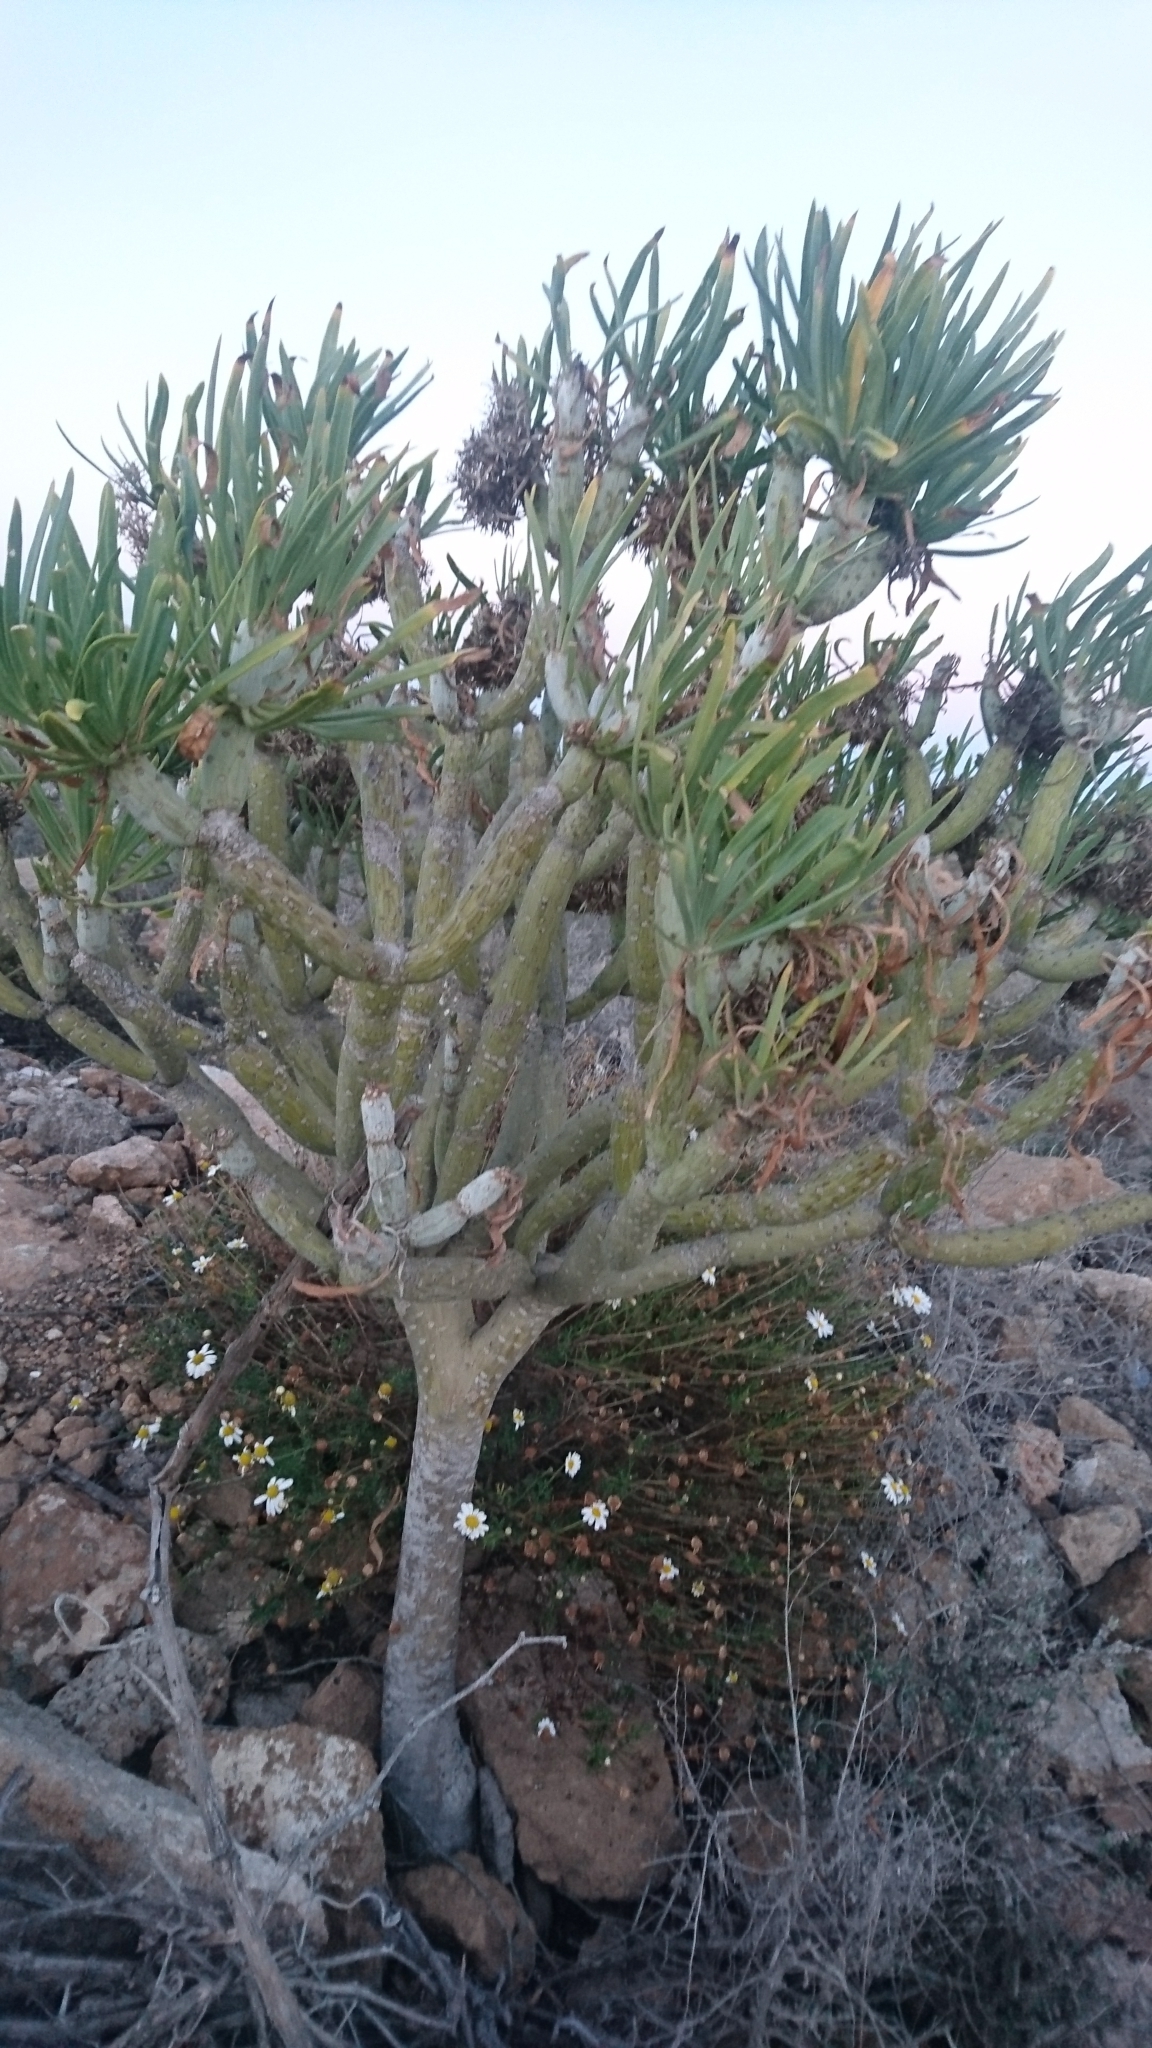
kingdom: Plantae
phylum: Tracheophyta
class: Magnoliopsida
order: Asterales
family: Asteraceae
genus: Kleinia
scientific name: Kleinia neriifolia
